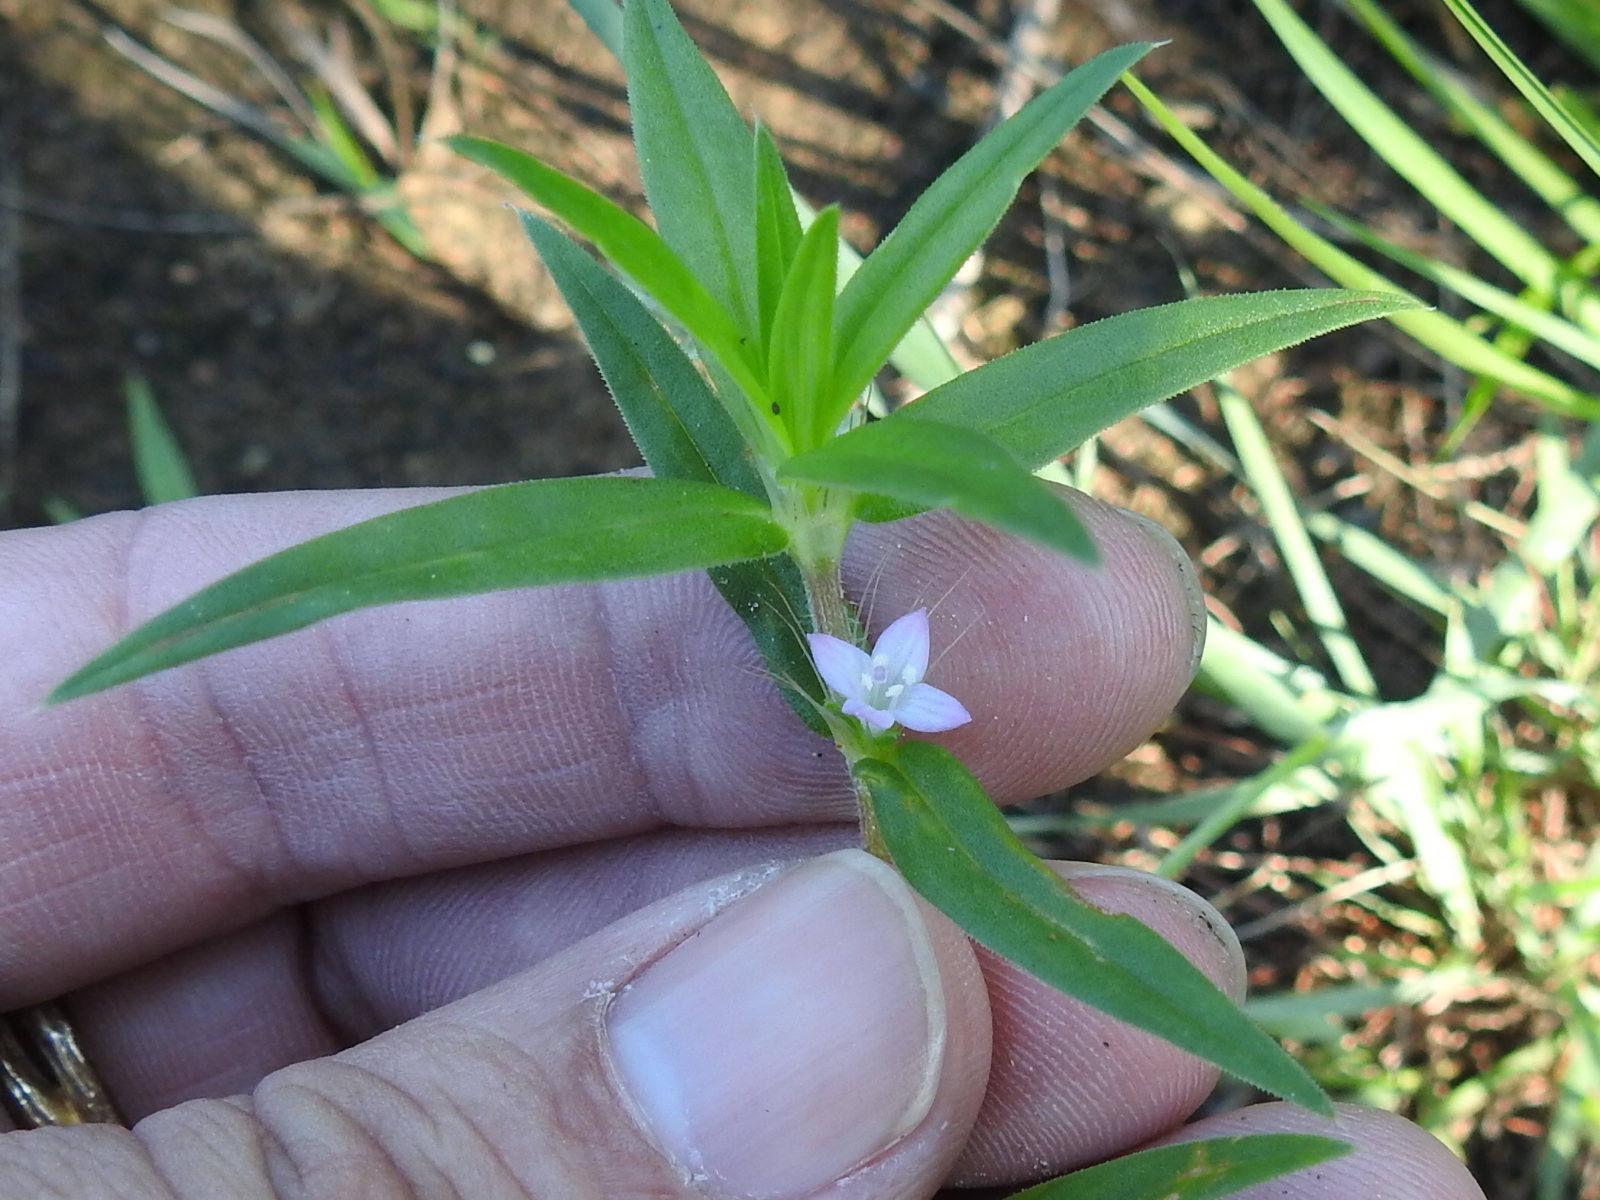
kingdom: Plantae
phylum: Tracheophyta
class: Magnoliopsida
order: Gentianales
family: Rubiaceae
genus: Hexasepalum
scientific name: Hexasepalum teres
